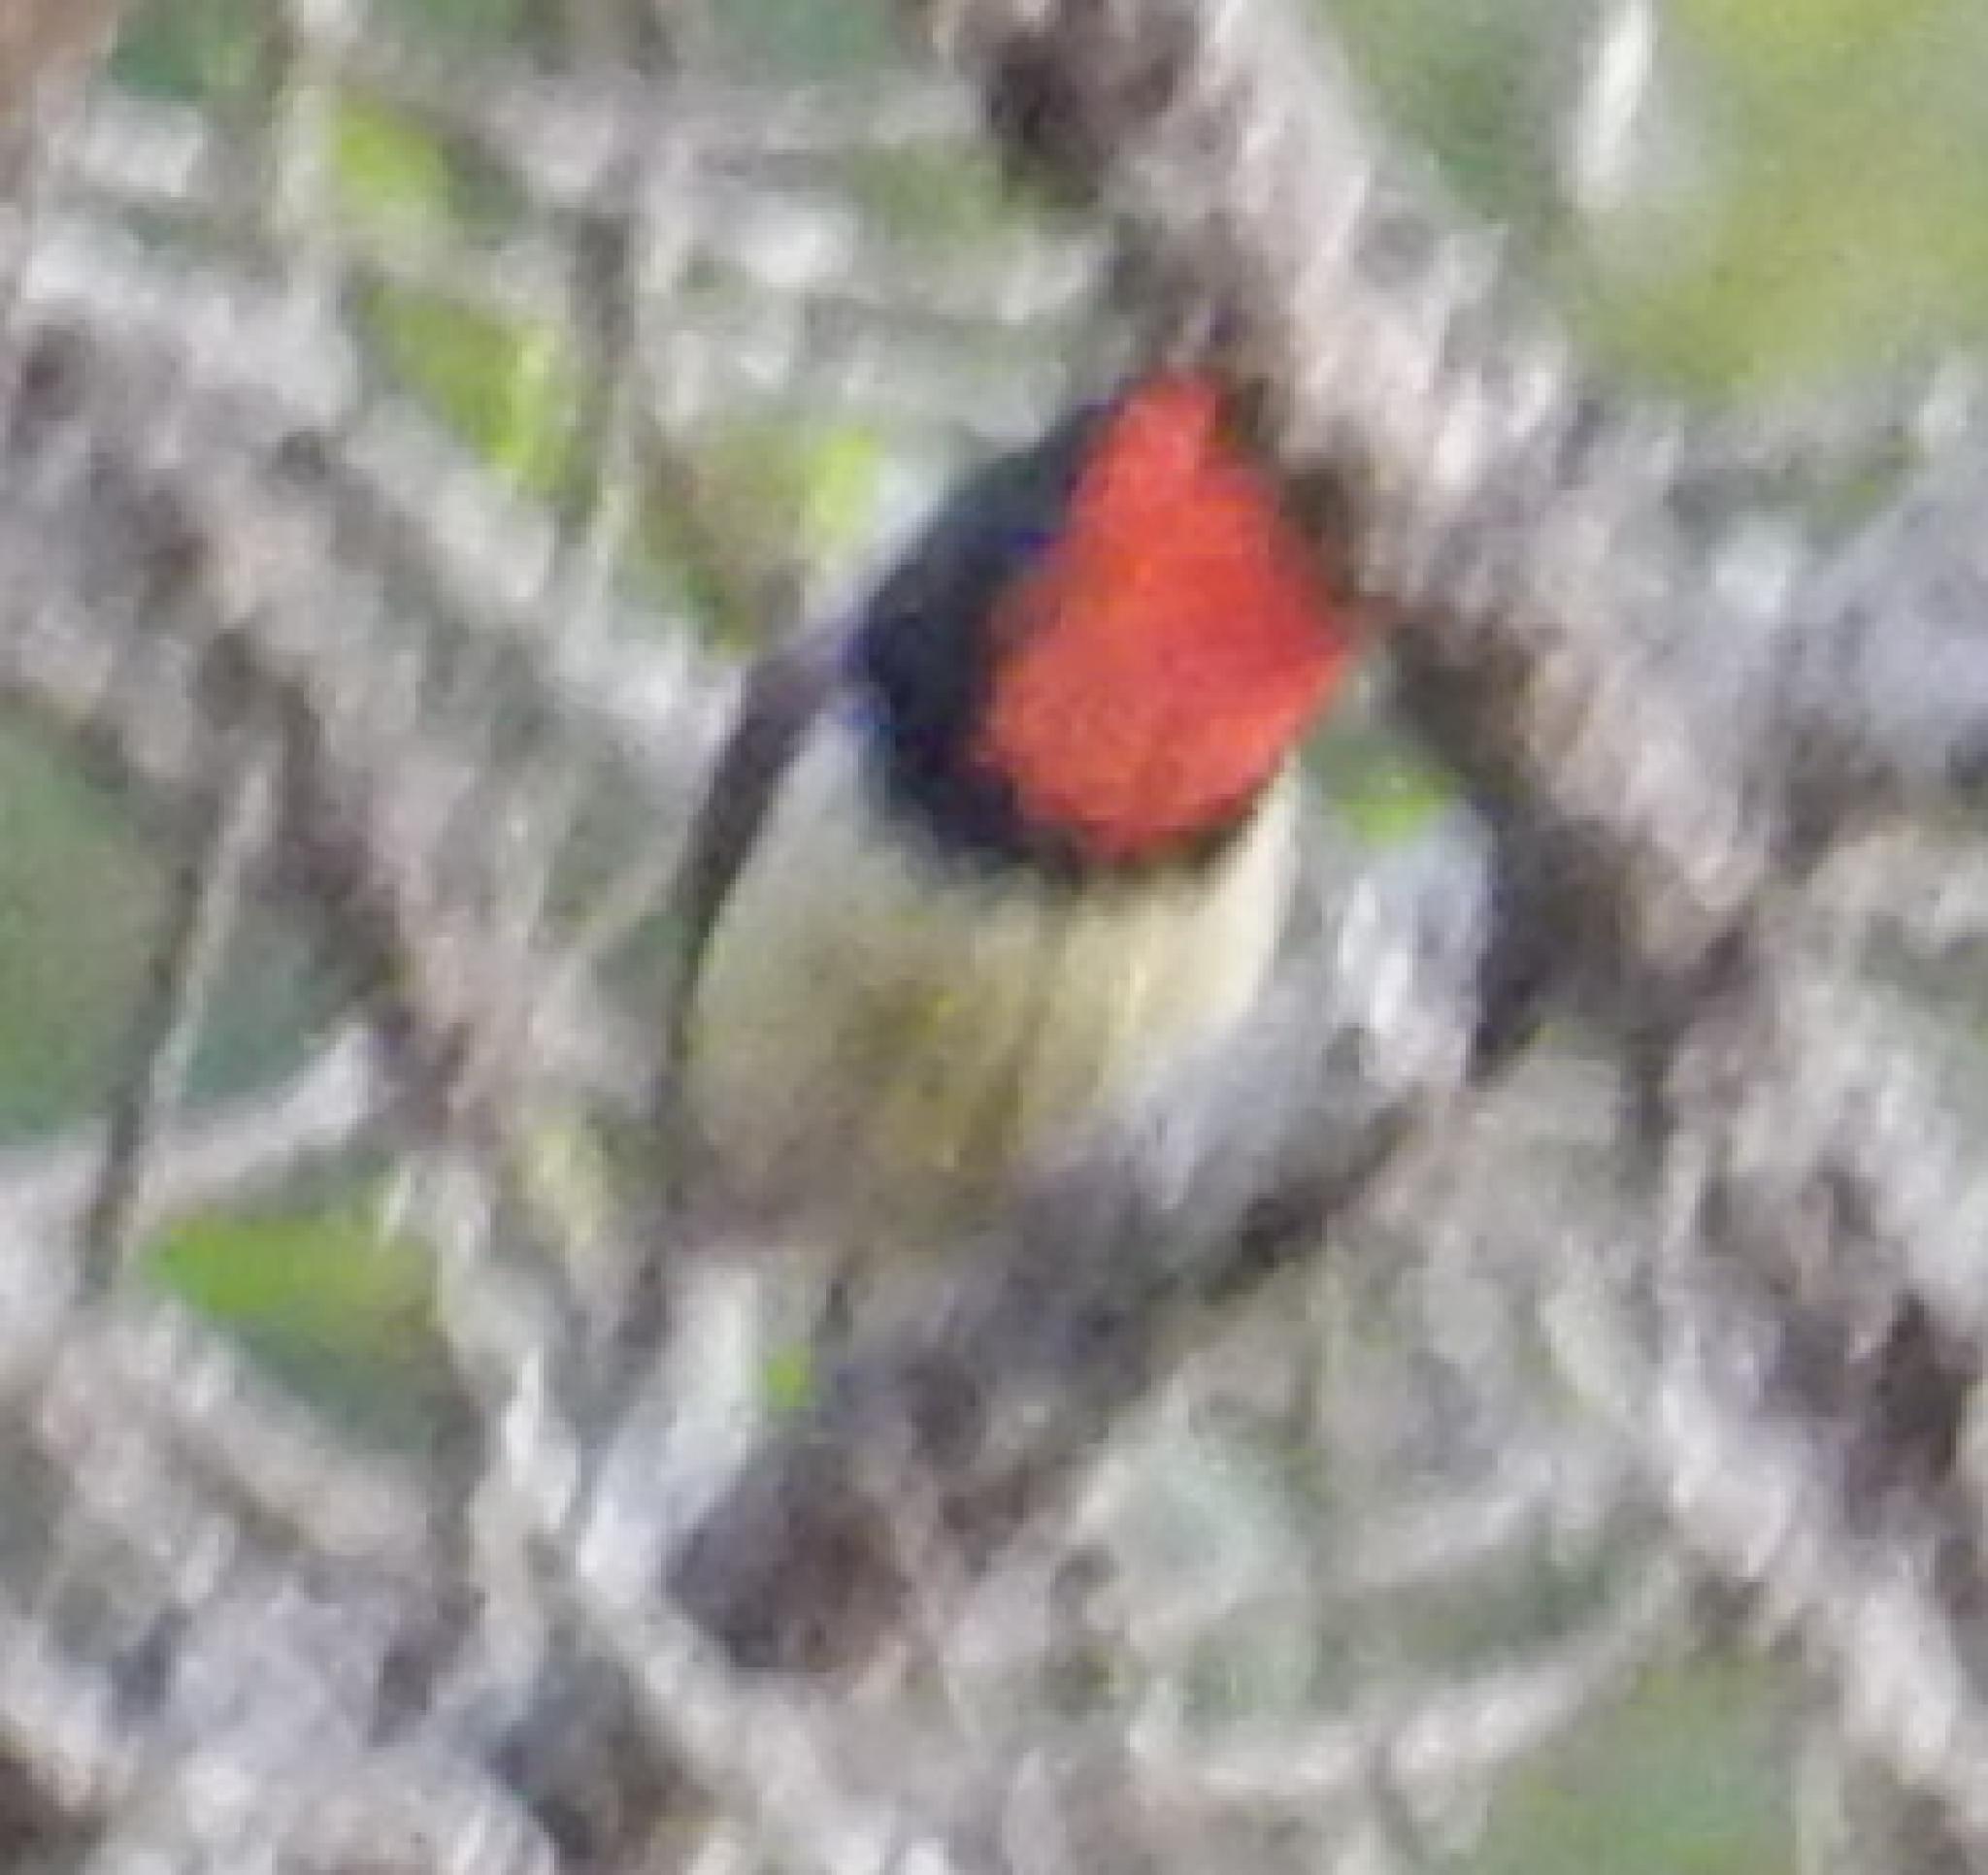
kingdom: Animalia
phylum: Chordata
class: Aves
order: Piciformes
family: Lybiidae
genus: Lybius
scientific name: Lybius torquatus
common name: Black-collared barbet
